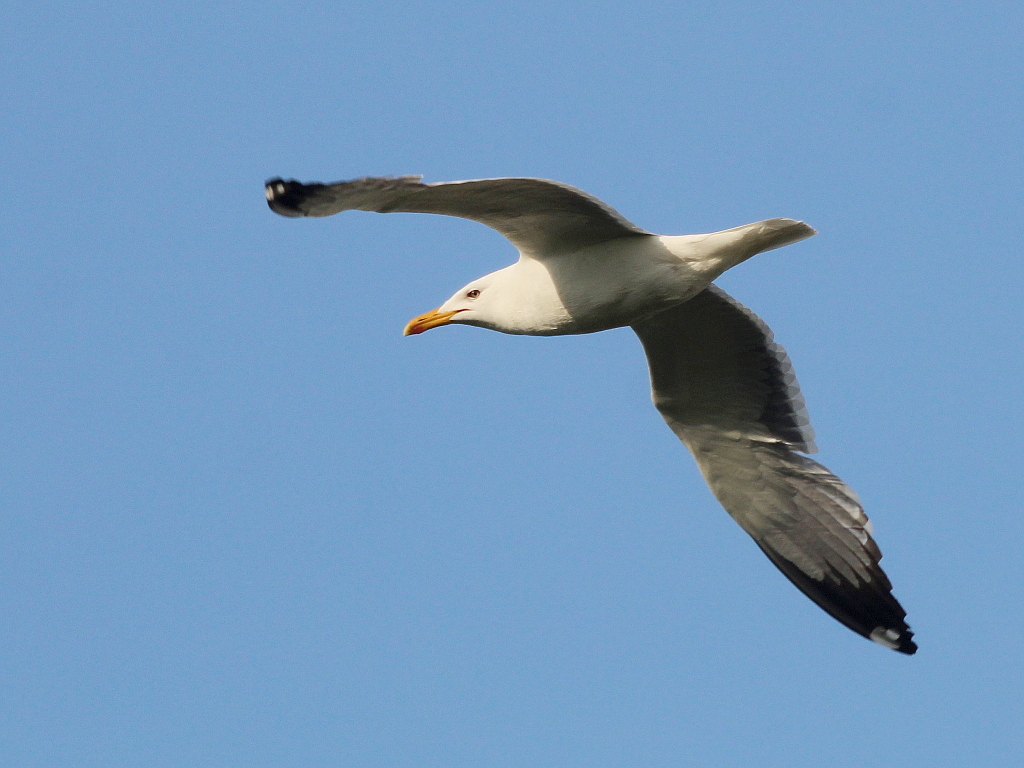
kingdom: Animalia
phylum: Chordata
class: Aves
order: Charadriiformes
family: Laridae
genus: Larus
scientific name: Larus fuscus
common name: Lesser black-backed gull
